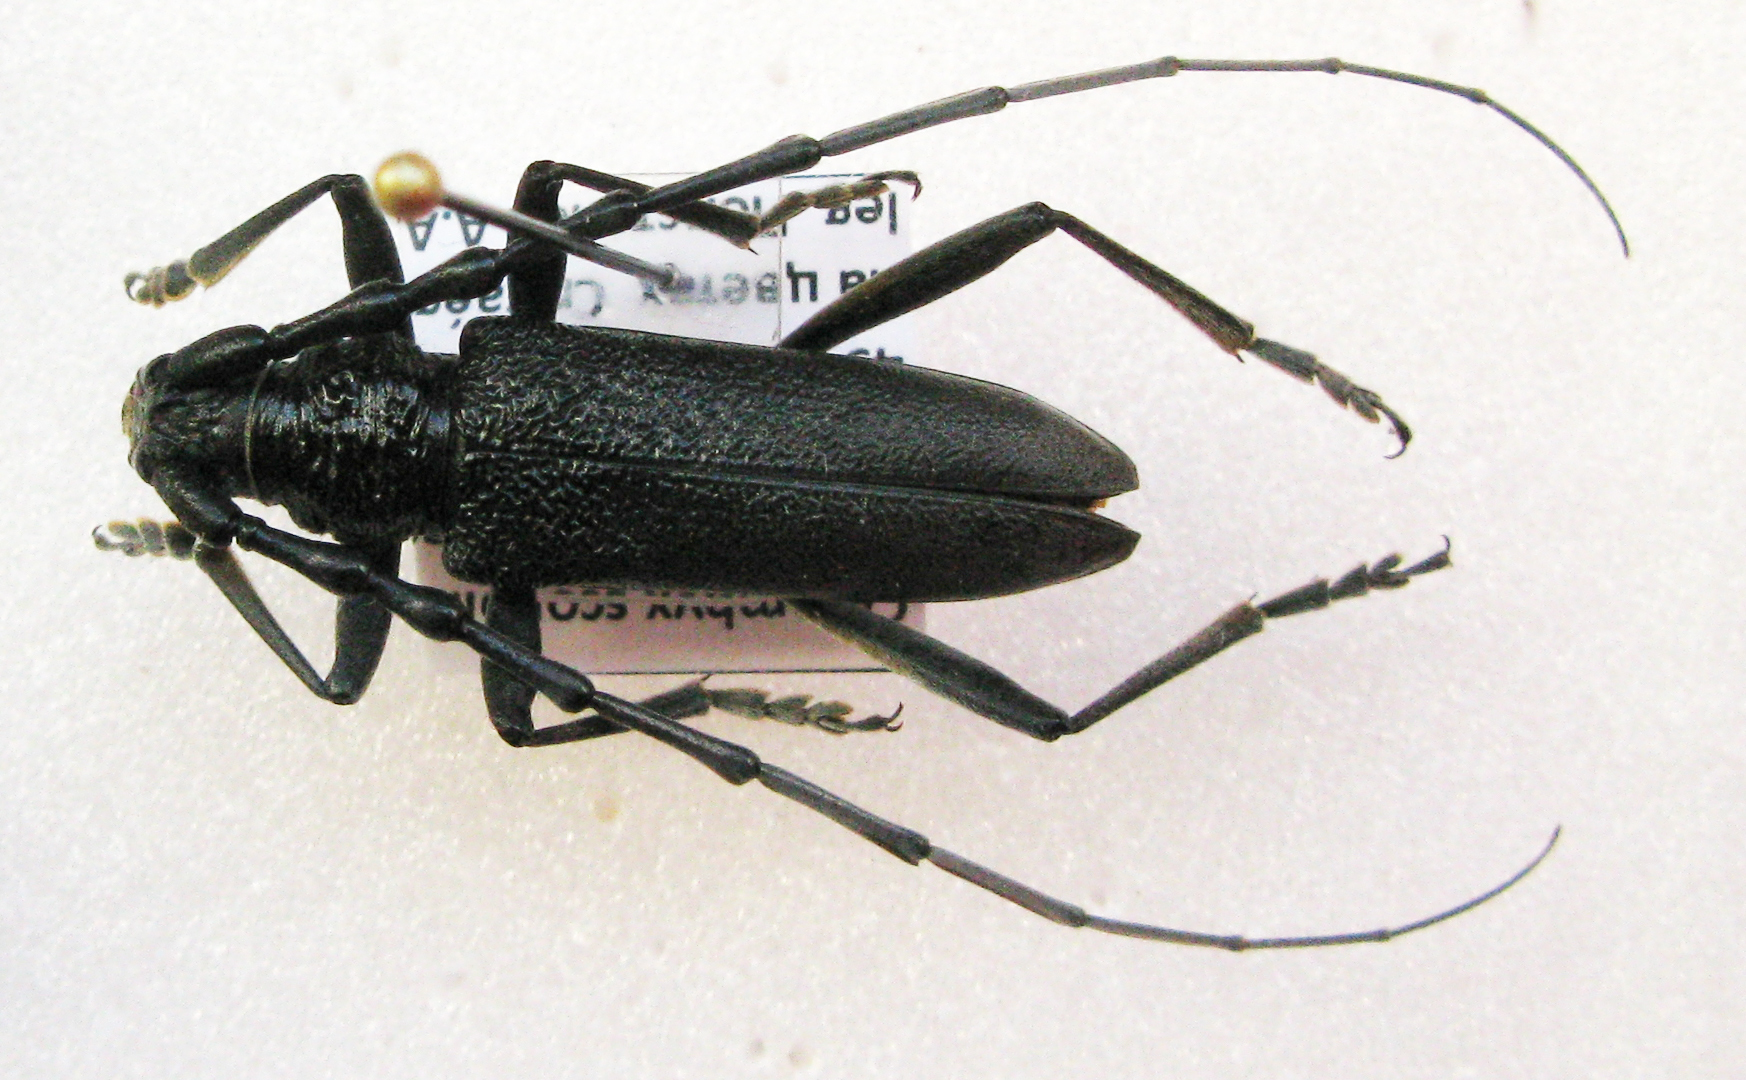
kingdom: Animalia
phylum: Arthropoda
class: Insecta
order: Coleoptera
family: Cerambycidae
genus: Cerambyx
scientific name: Cerambyx scopolii
